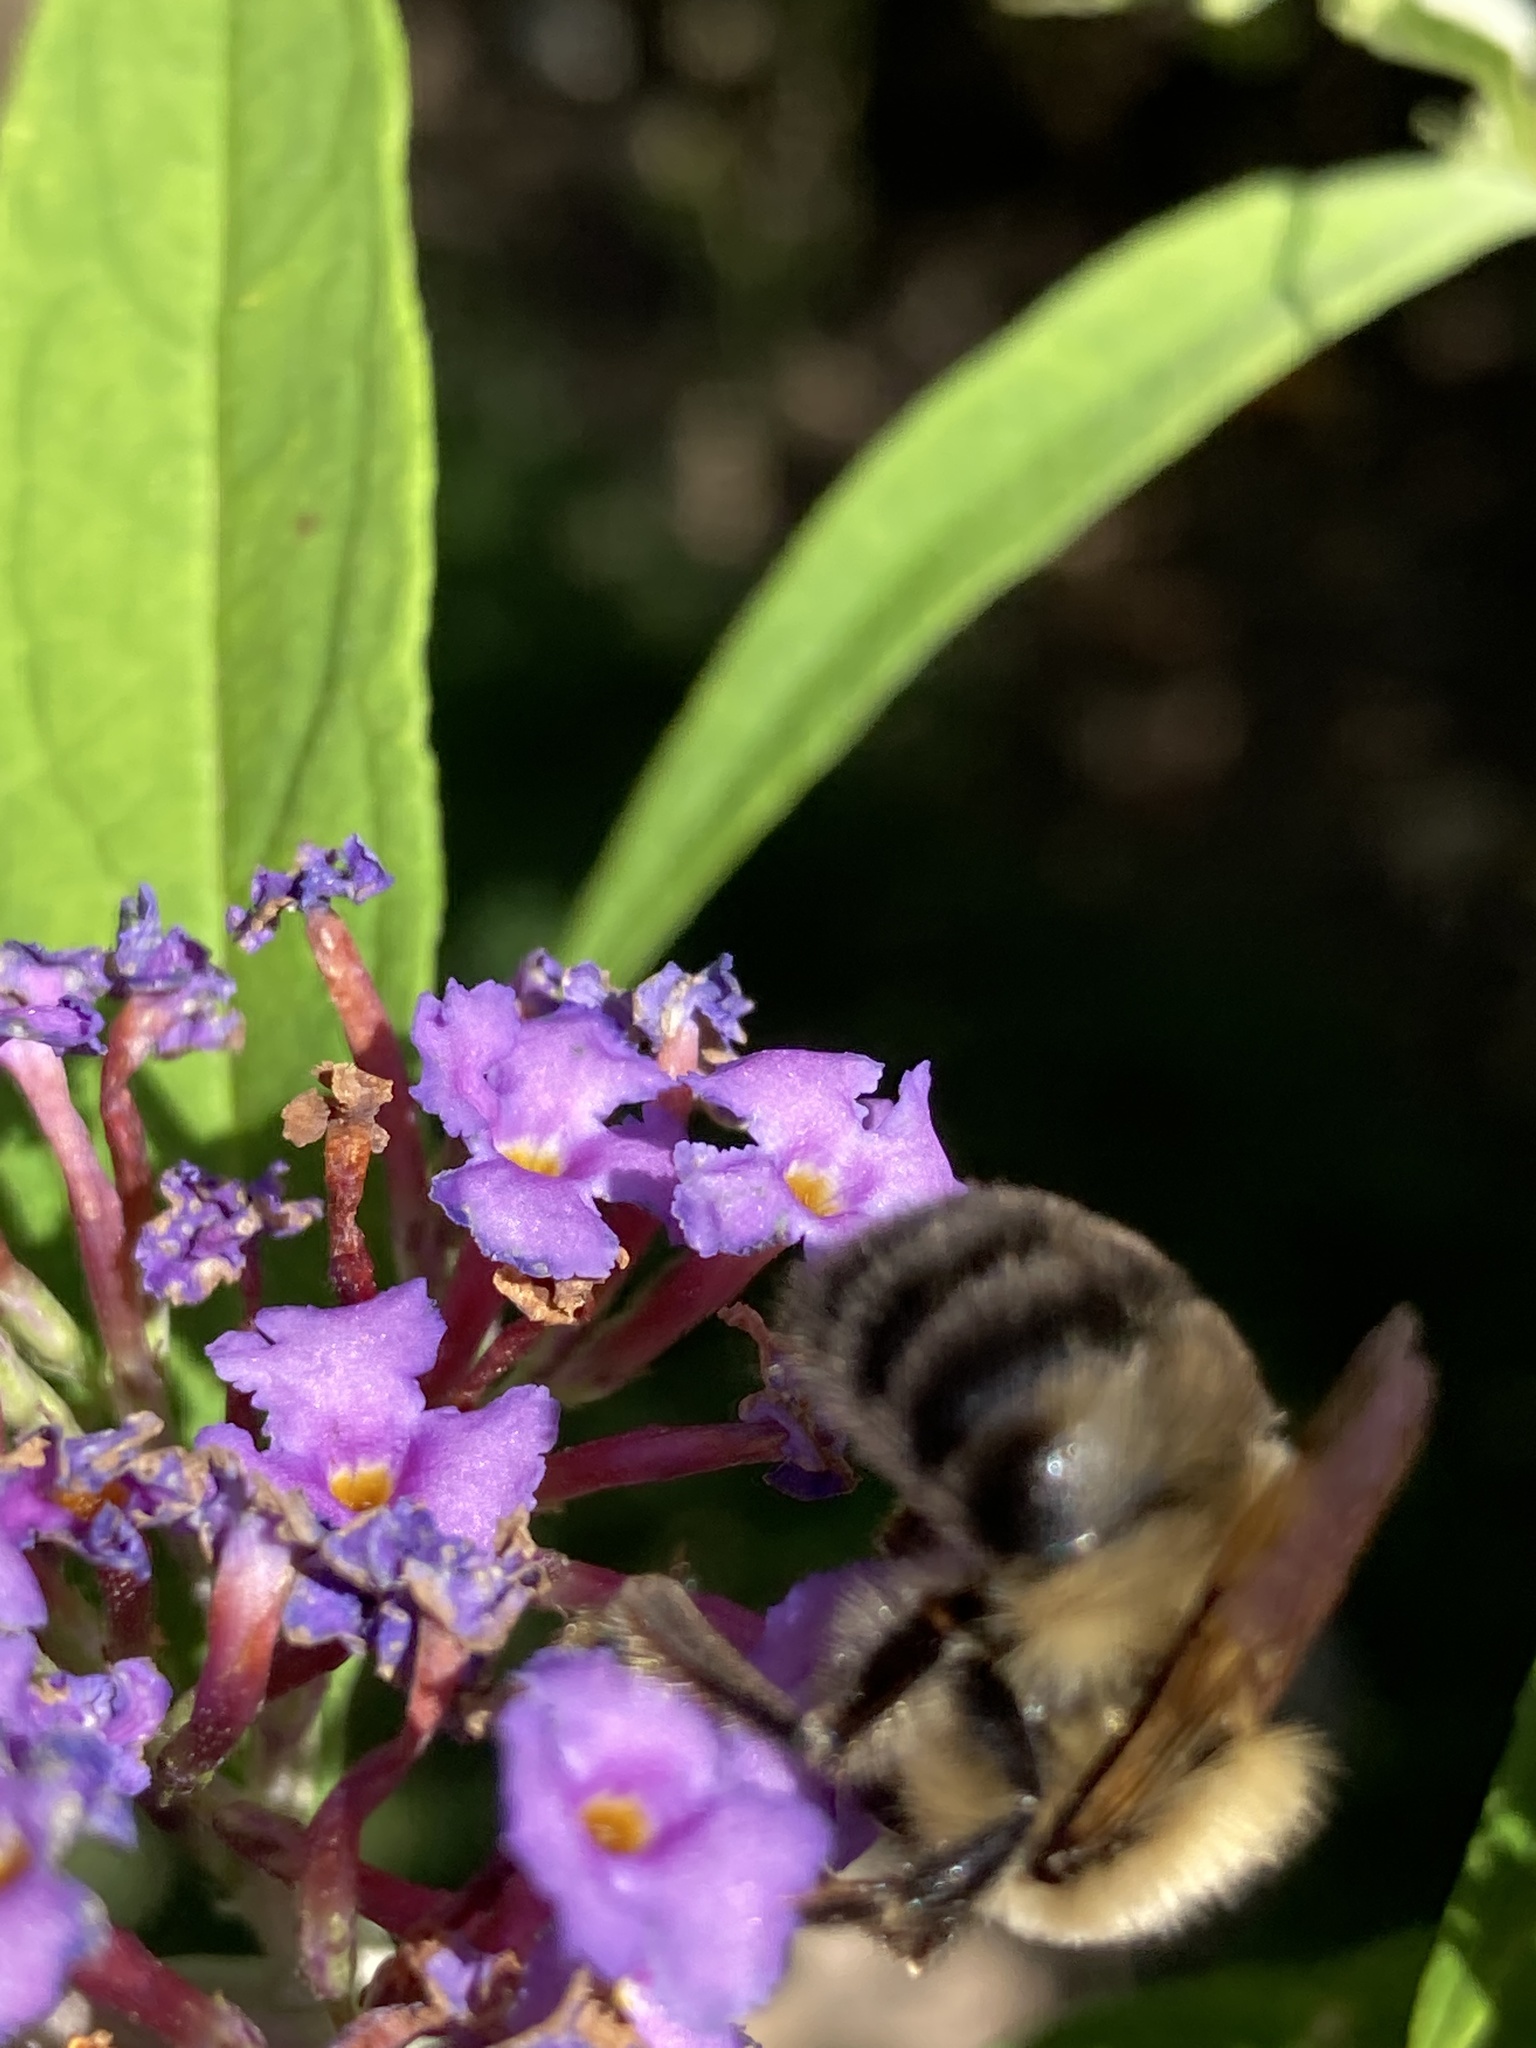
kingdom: Animalia
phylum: Arthropoda
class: Insecta
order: Hymenoptera
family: Apidae
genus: Bombus
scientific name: Bombus bimaculatus
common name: Two-spotted bumble bee
